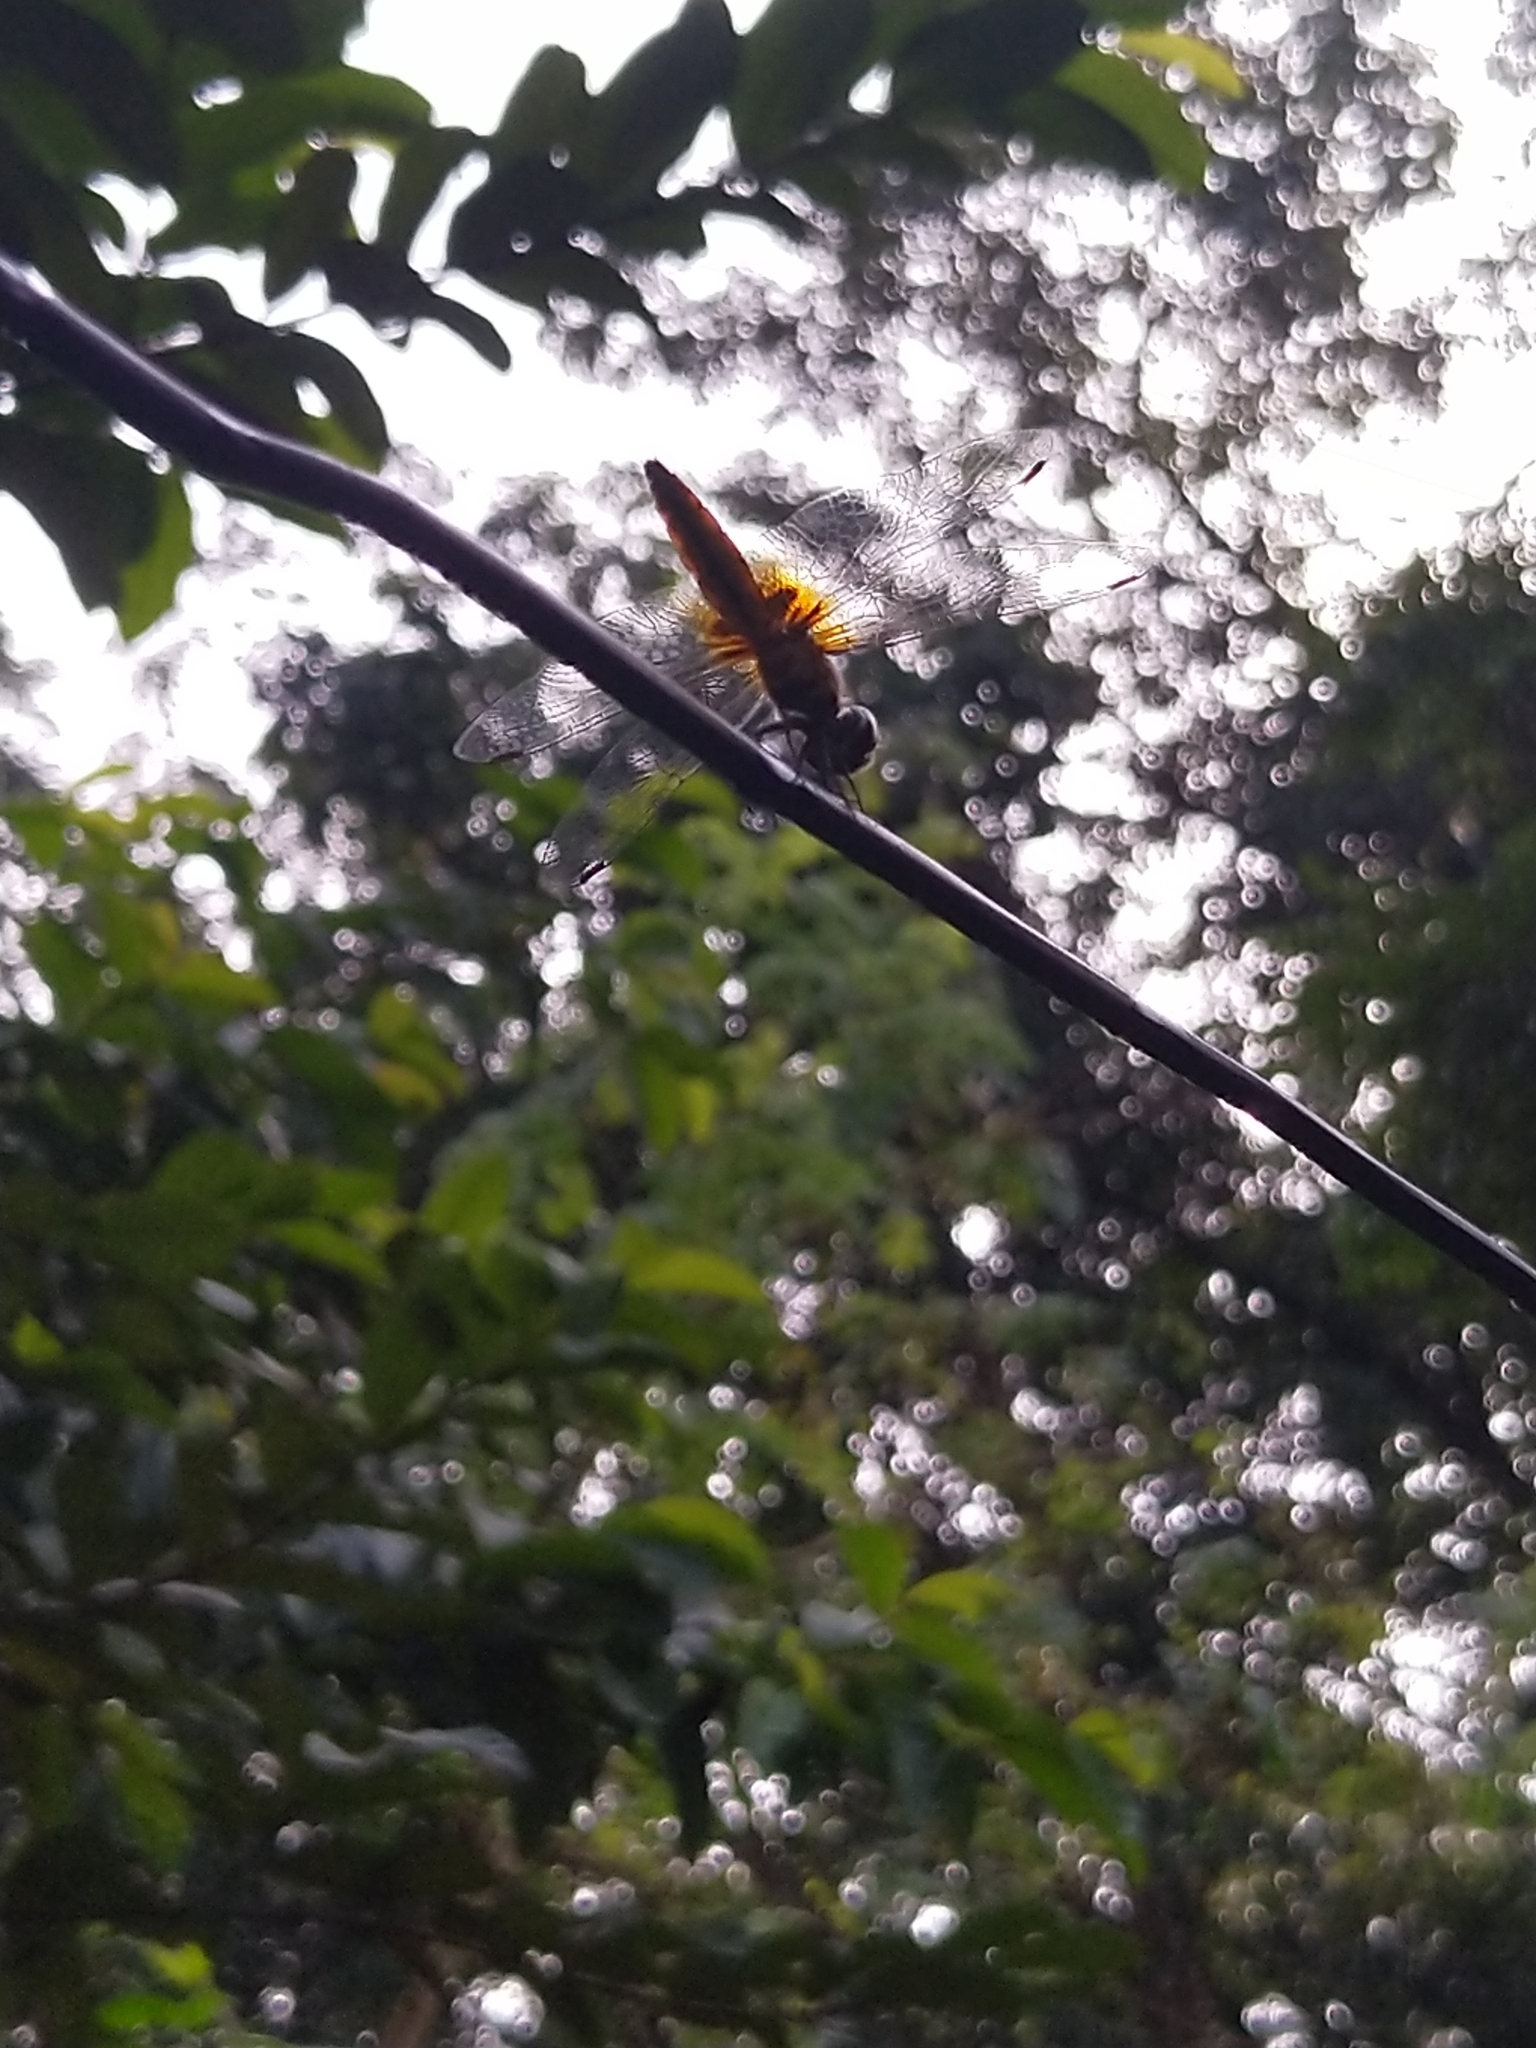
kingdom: Animalia
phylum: Arthropoda
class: Insecta
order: Odonata
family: Libellulidae
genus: Aethriamanta
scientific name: Aethriamanta brevipennis
